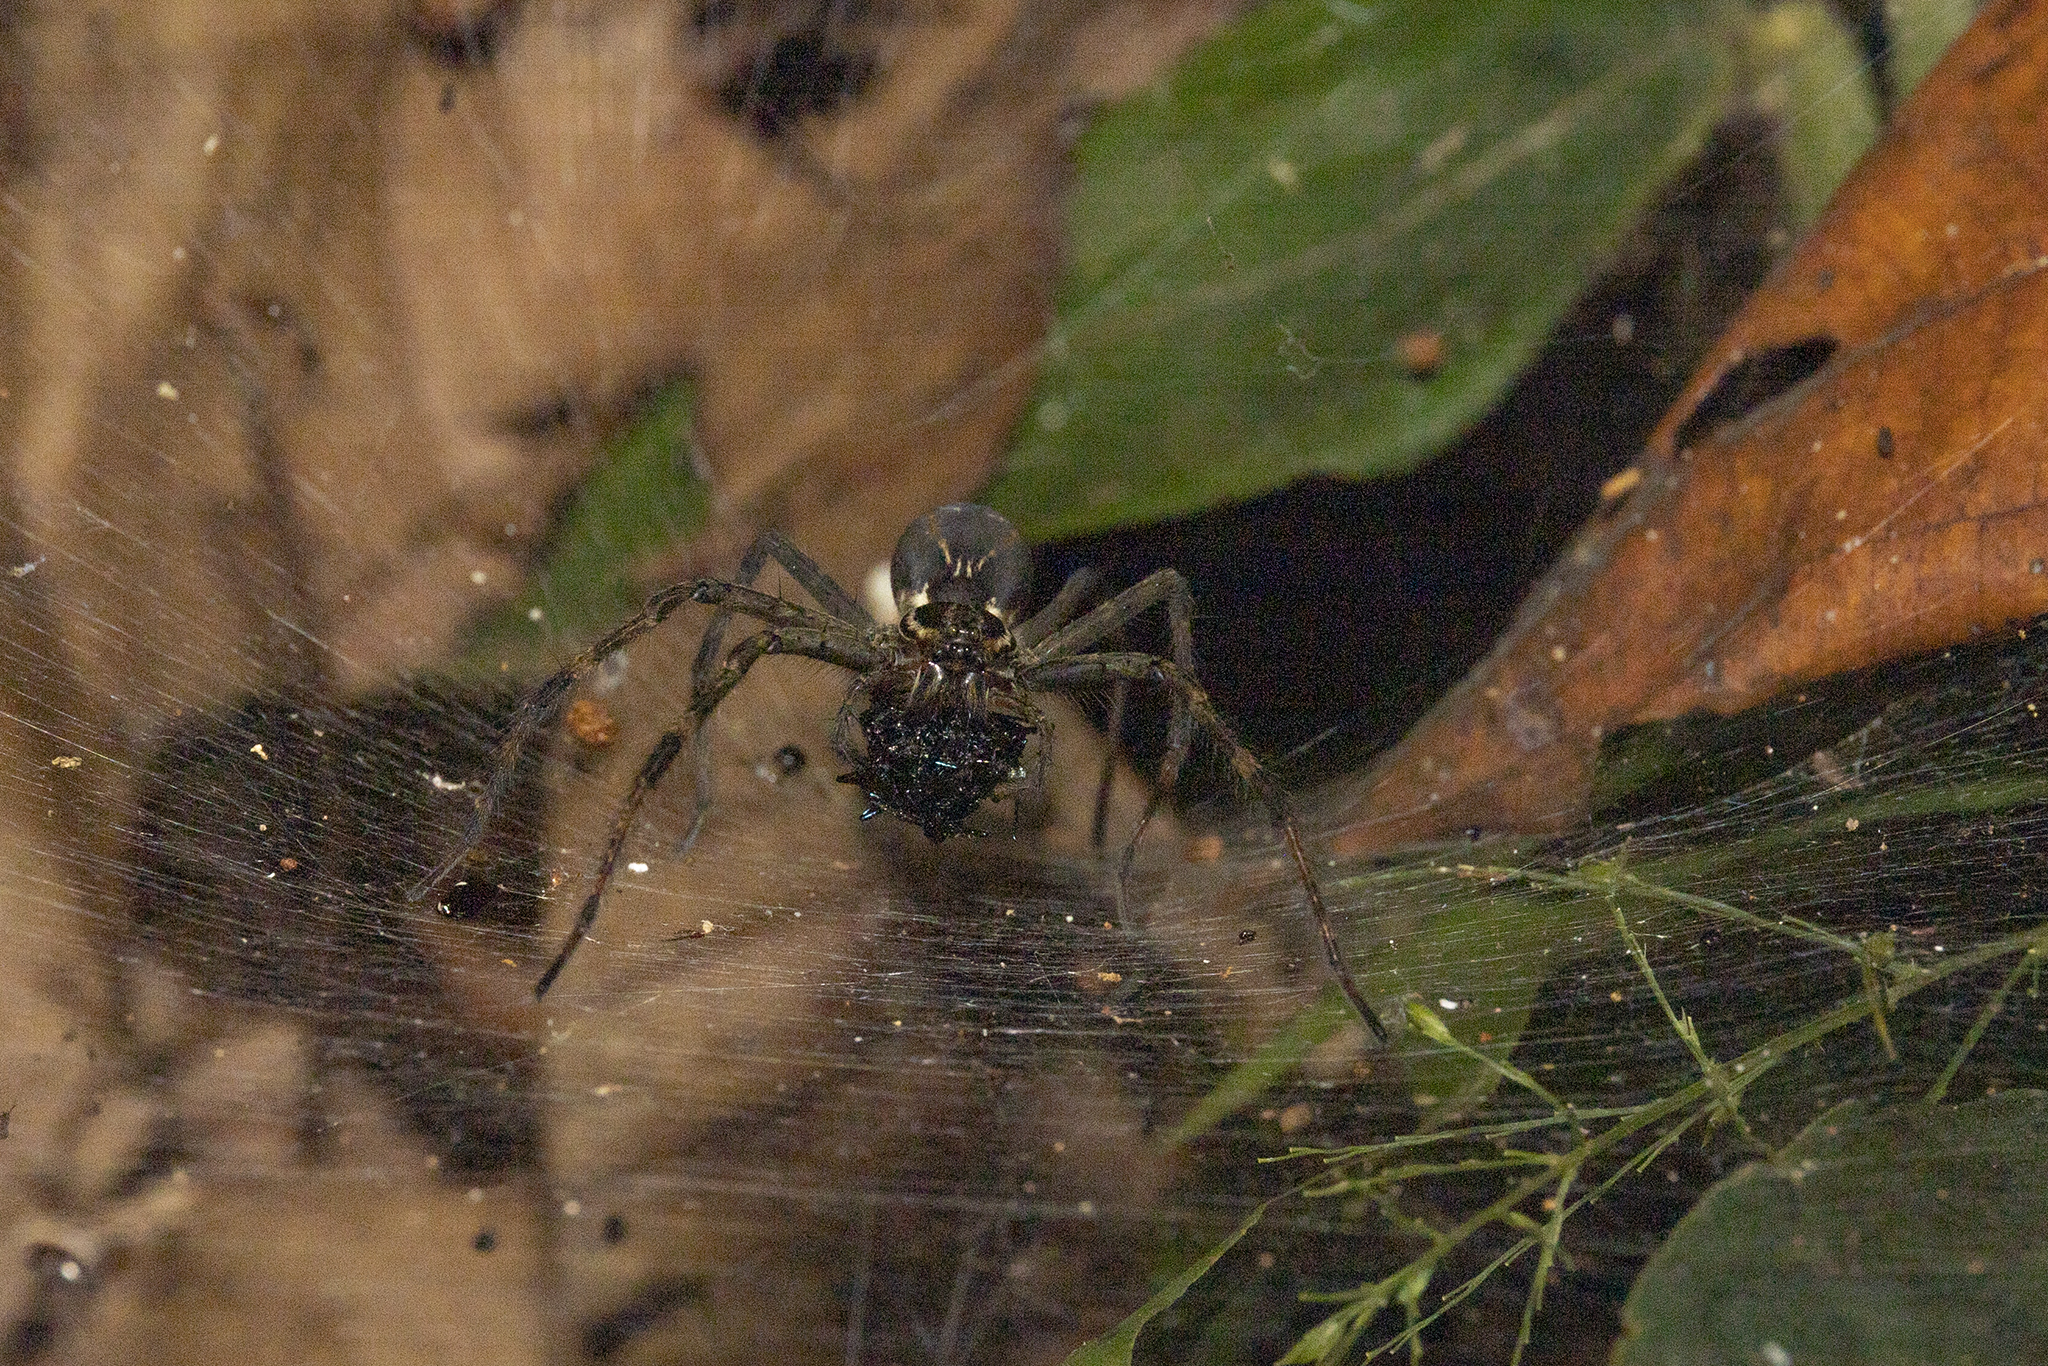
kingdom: Animalia
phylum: Arthropoda
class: Arachnida
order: Araneae
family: Lycosidae
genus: Aglaoctenus
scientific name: Aglaoctenus castaneus
